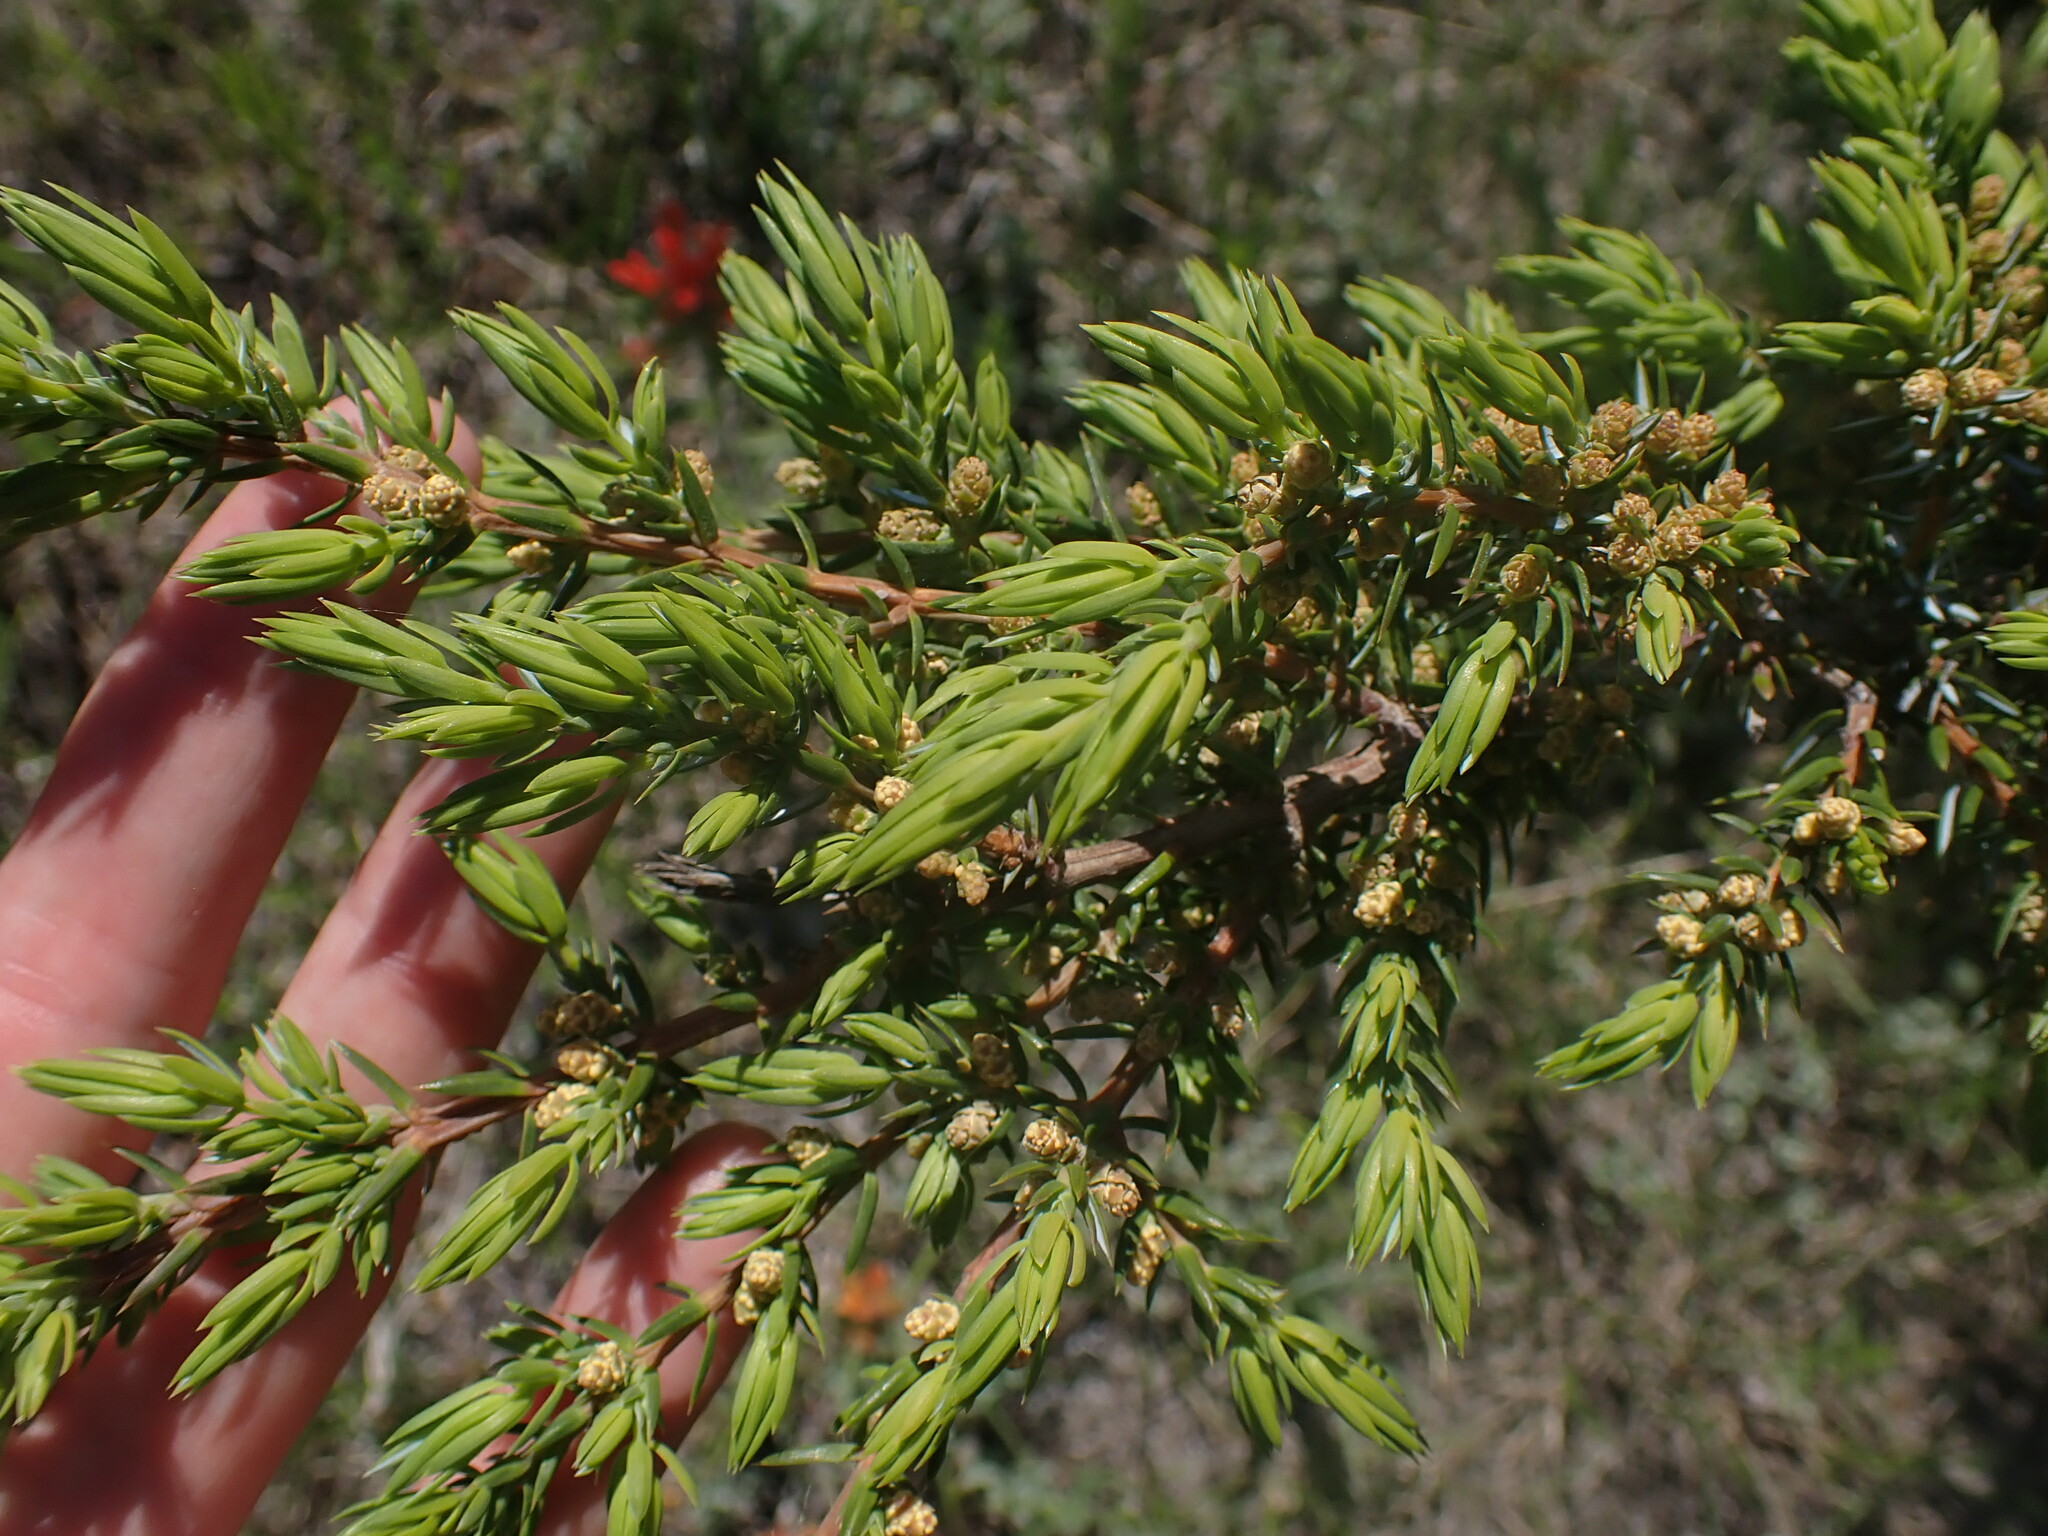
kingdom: Plantae
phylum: Tracheophyta
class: Pinopsida
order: Pinales
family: Cupressaceae
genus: Juniperus
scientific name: Juniperus communis
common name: Common juniper
